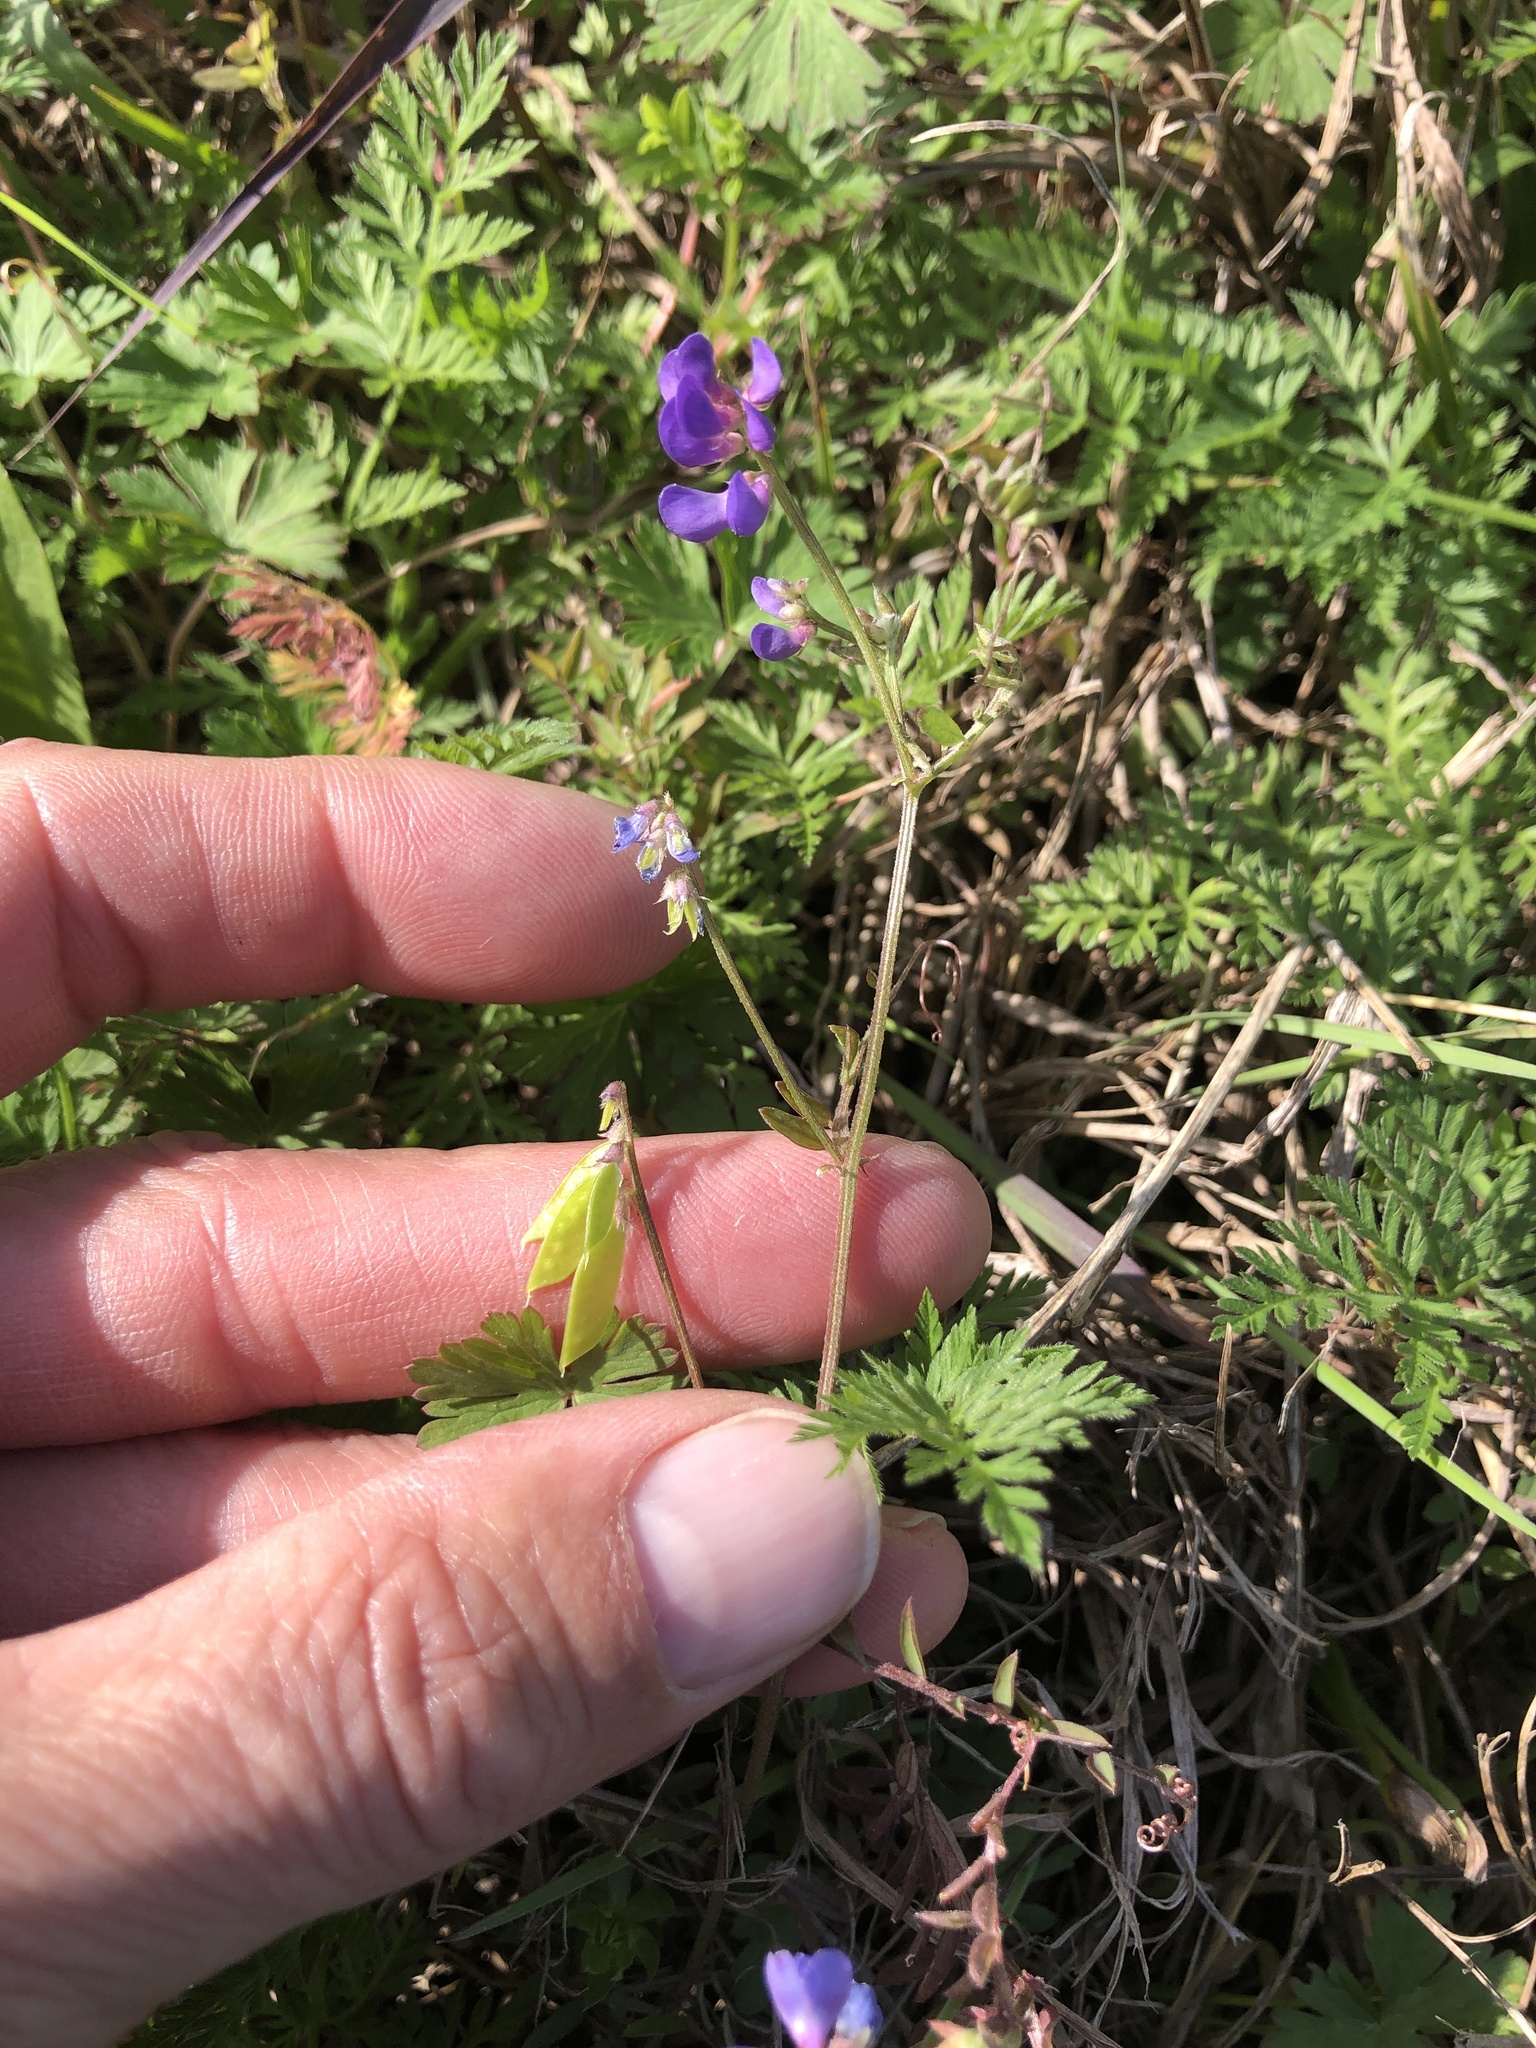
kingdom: Plantae
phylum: Tracheophyta
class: Magnoliopsida
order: Fabales
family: Fabaceae
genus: Vicia
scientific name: Vicia ludoviciana
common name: Louisiana vetch
